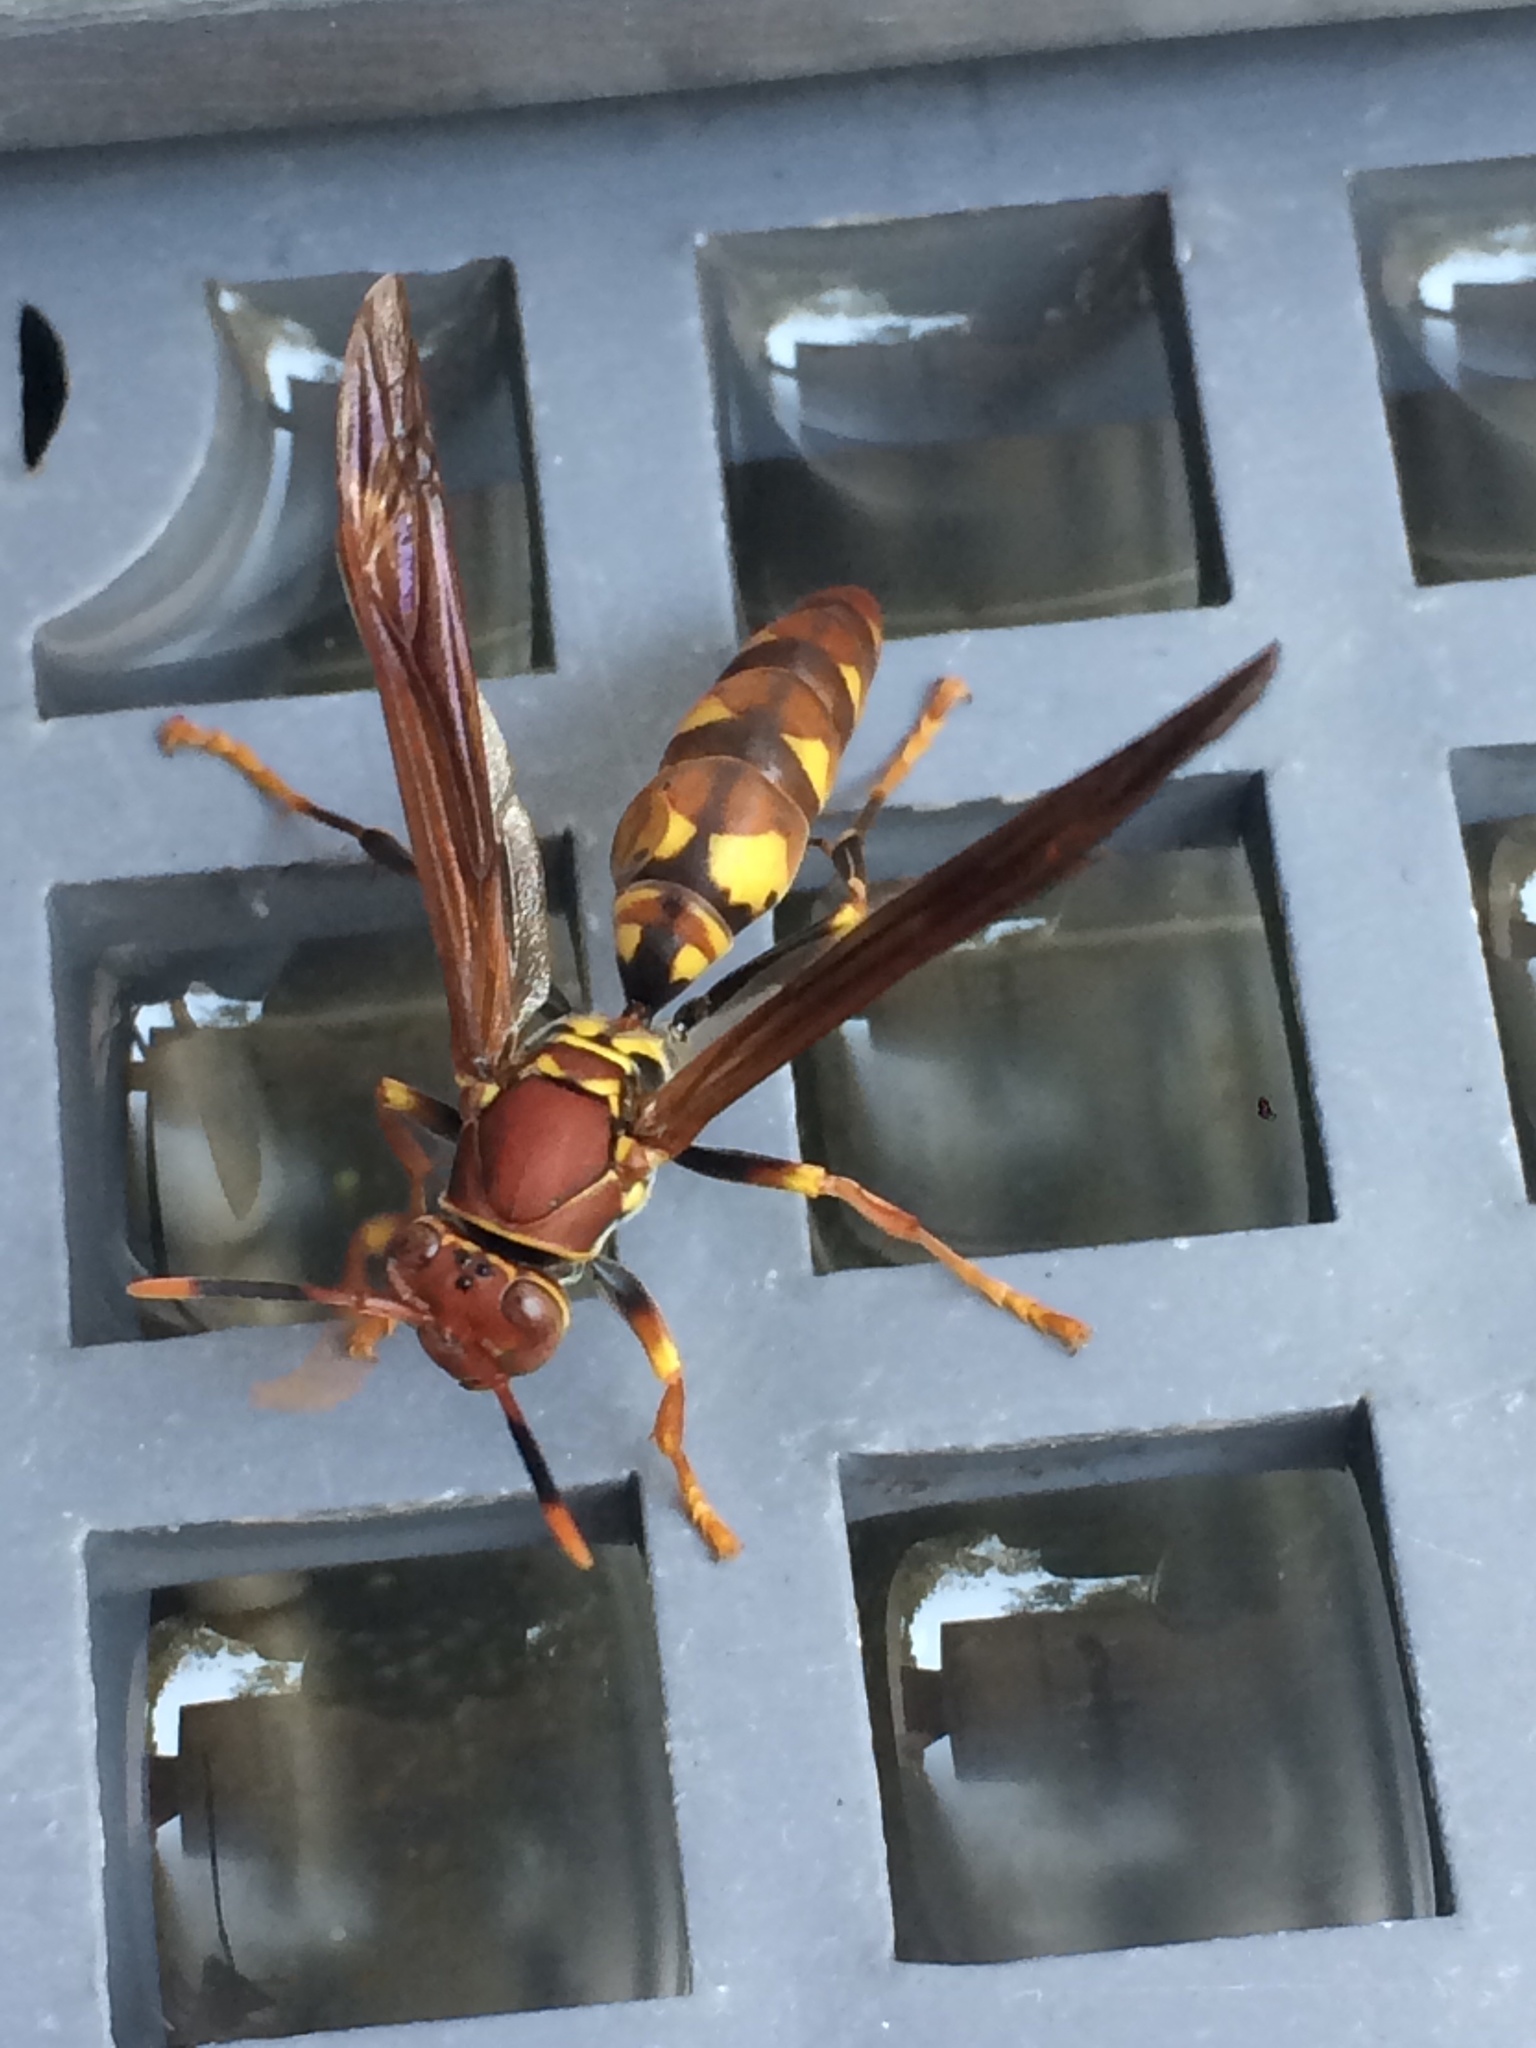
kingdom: Animalia
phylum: Arthropoda
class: Insecta
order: Hymenoptera
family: Eumenidae
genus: Polistes
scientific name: Polistes versicolor
